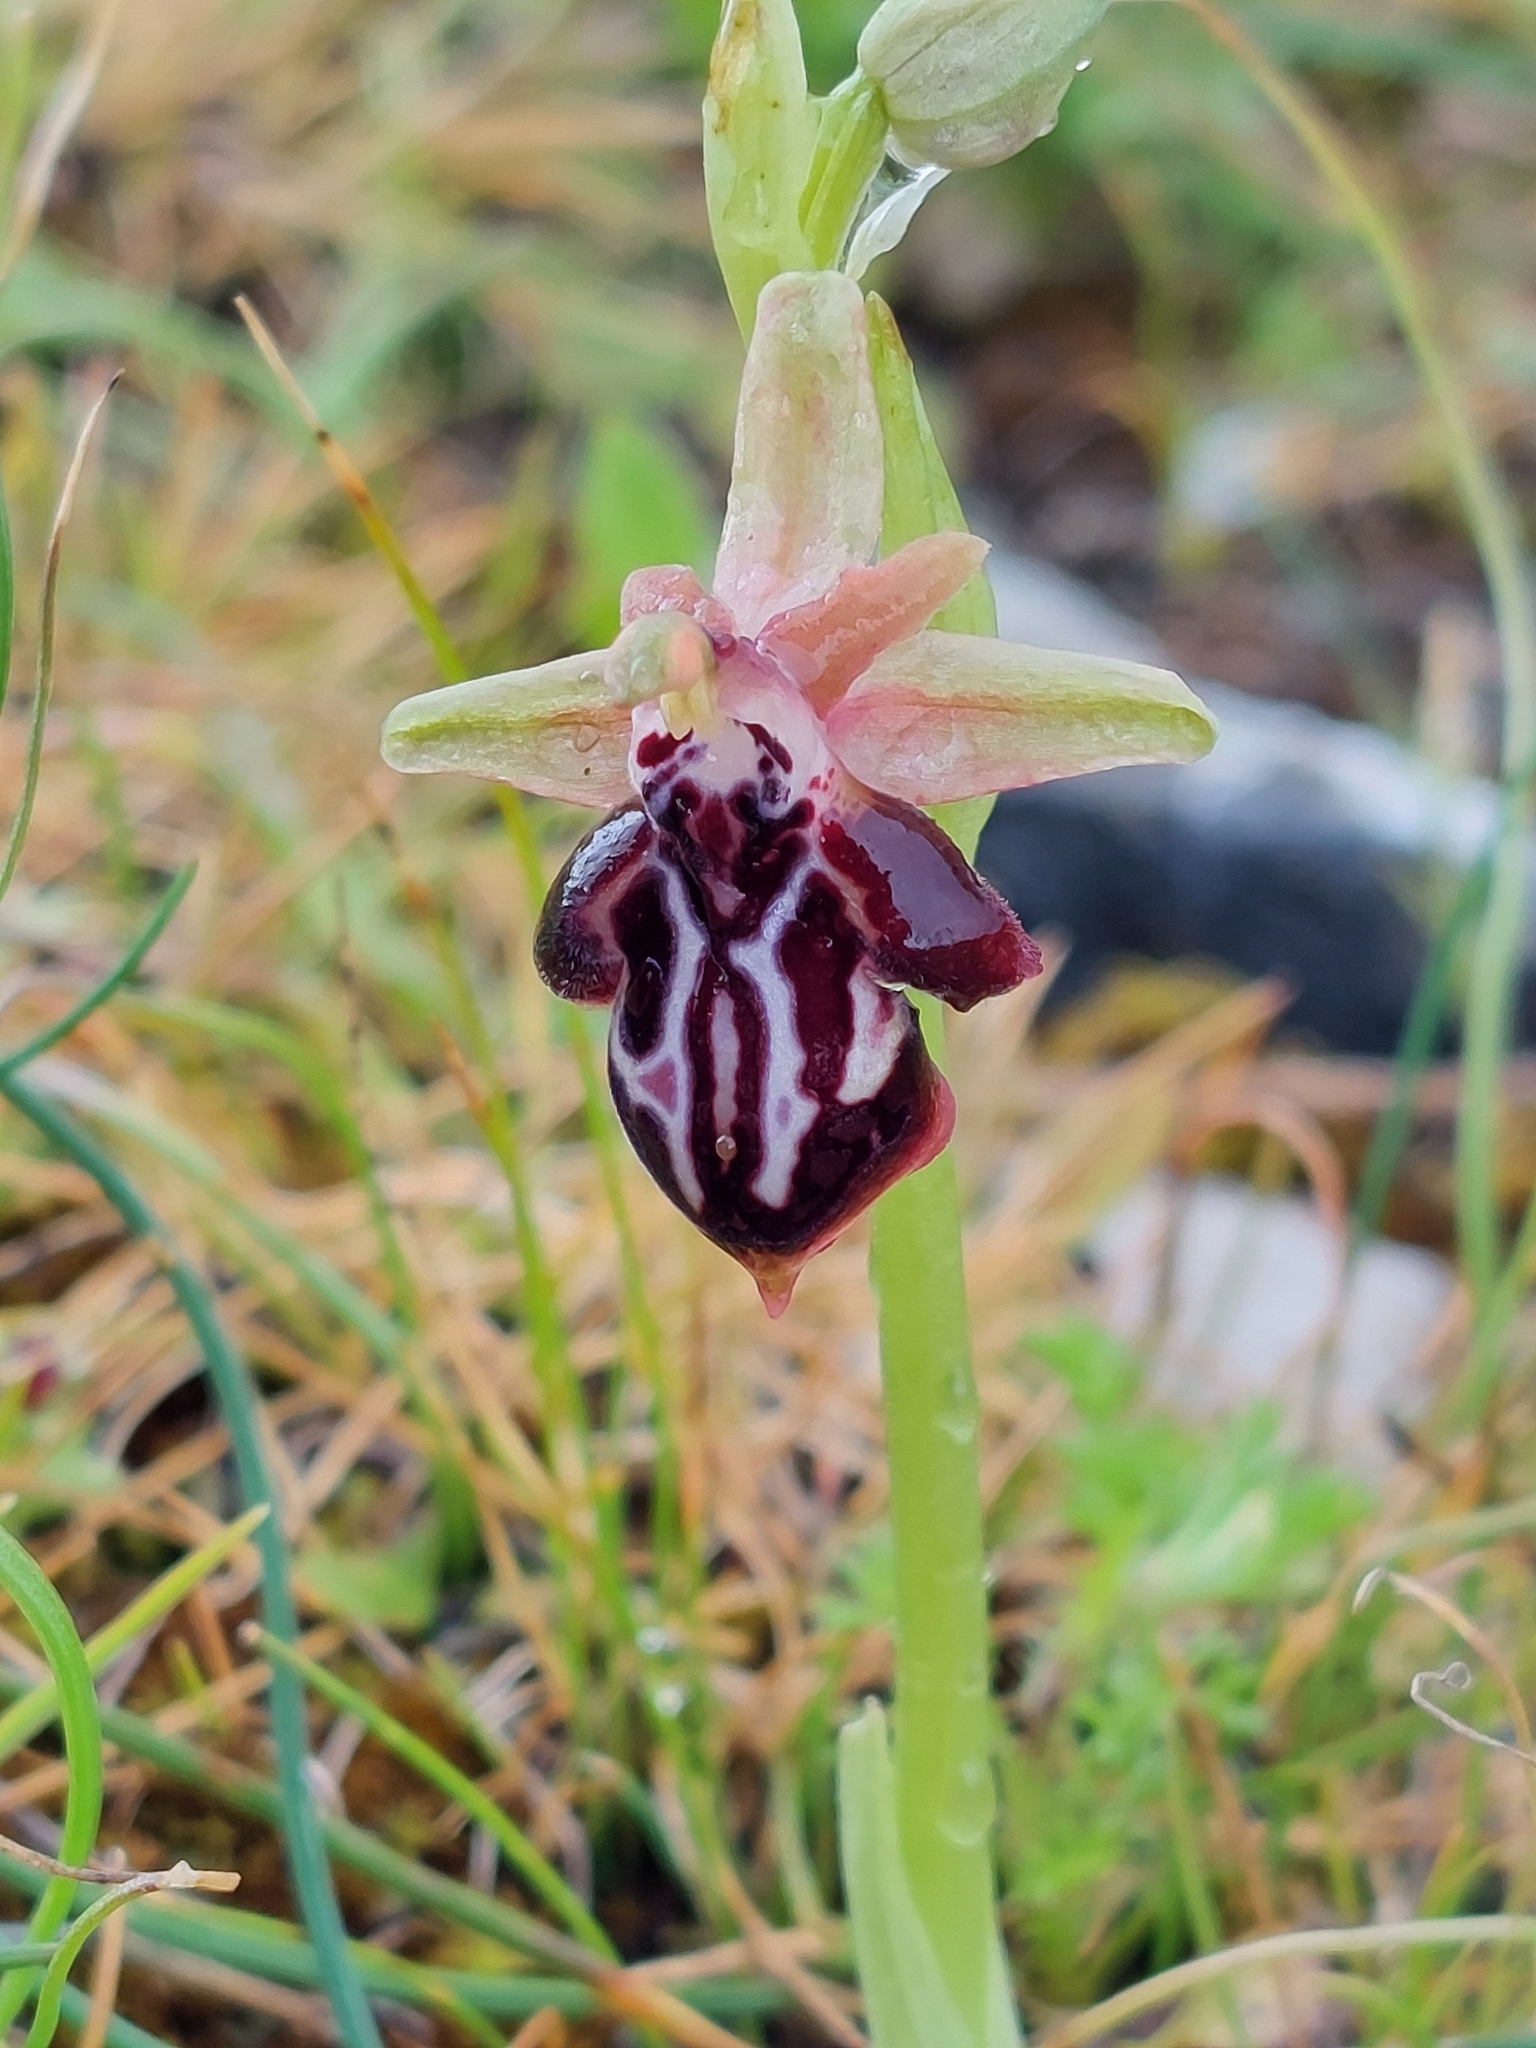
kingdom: Plantae
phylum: Tracheophyta
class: Liliopsida
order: Asparagales
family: Orchidaceae
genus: Ophrys
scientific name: Ophrys cretica
